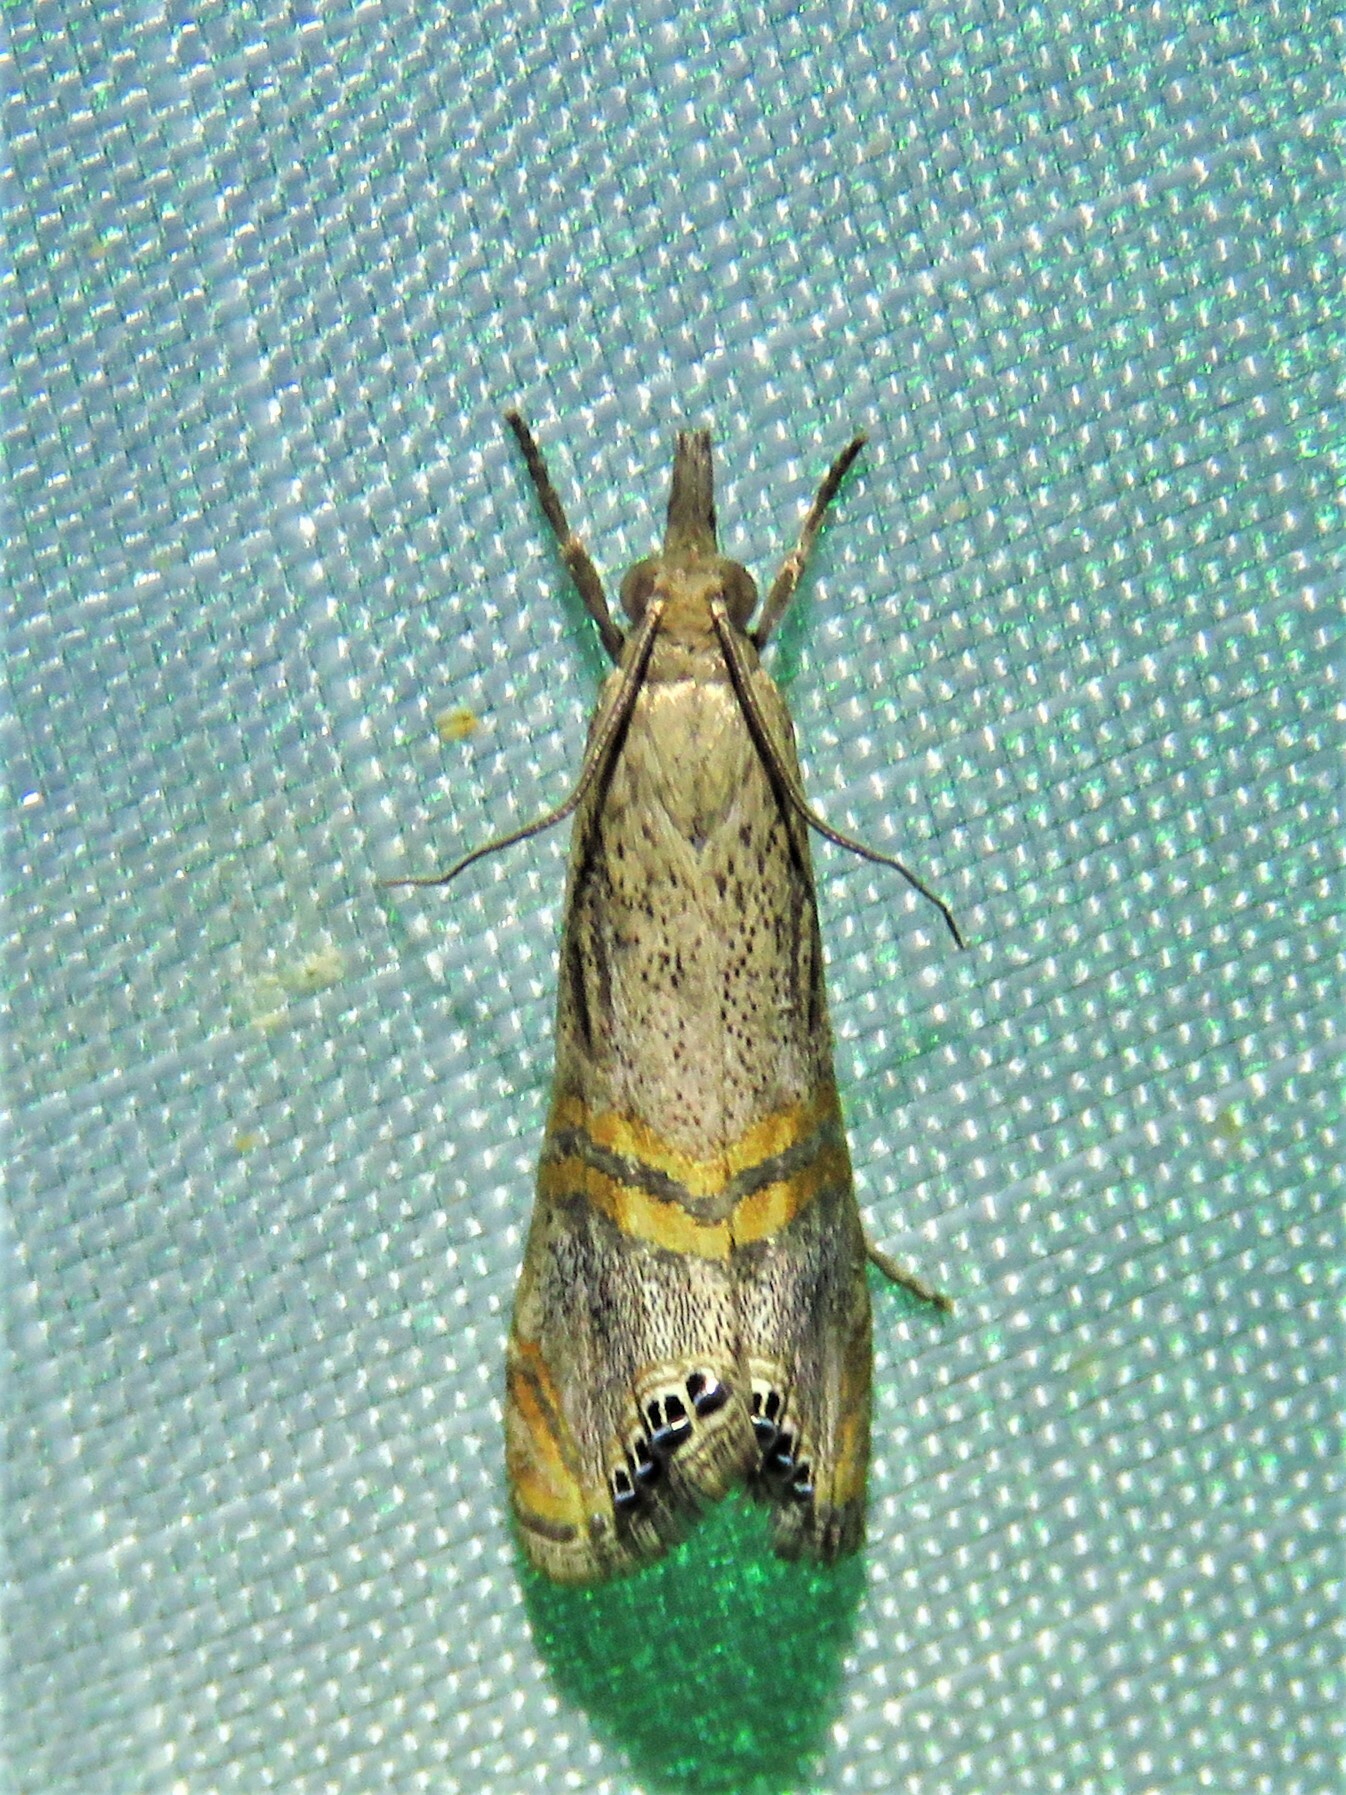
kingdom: Animalia
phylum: Arthropoda
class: Insecta
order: Lepidoptera
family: Crambidae
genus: Euchromius
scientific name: Euchromius ocellea
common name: Necklace veneer moth
